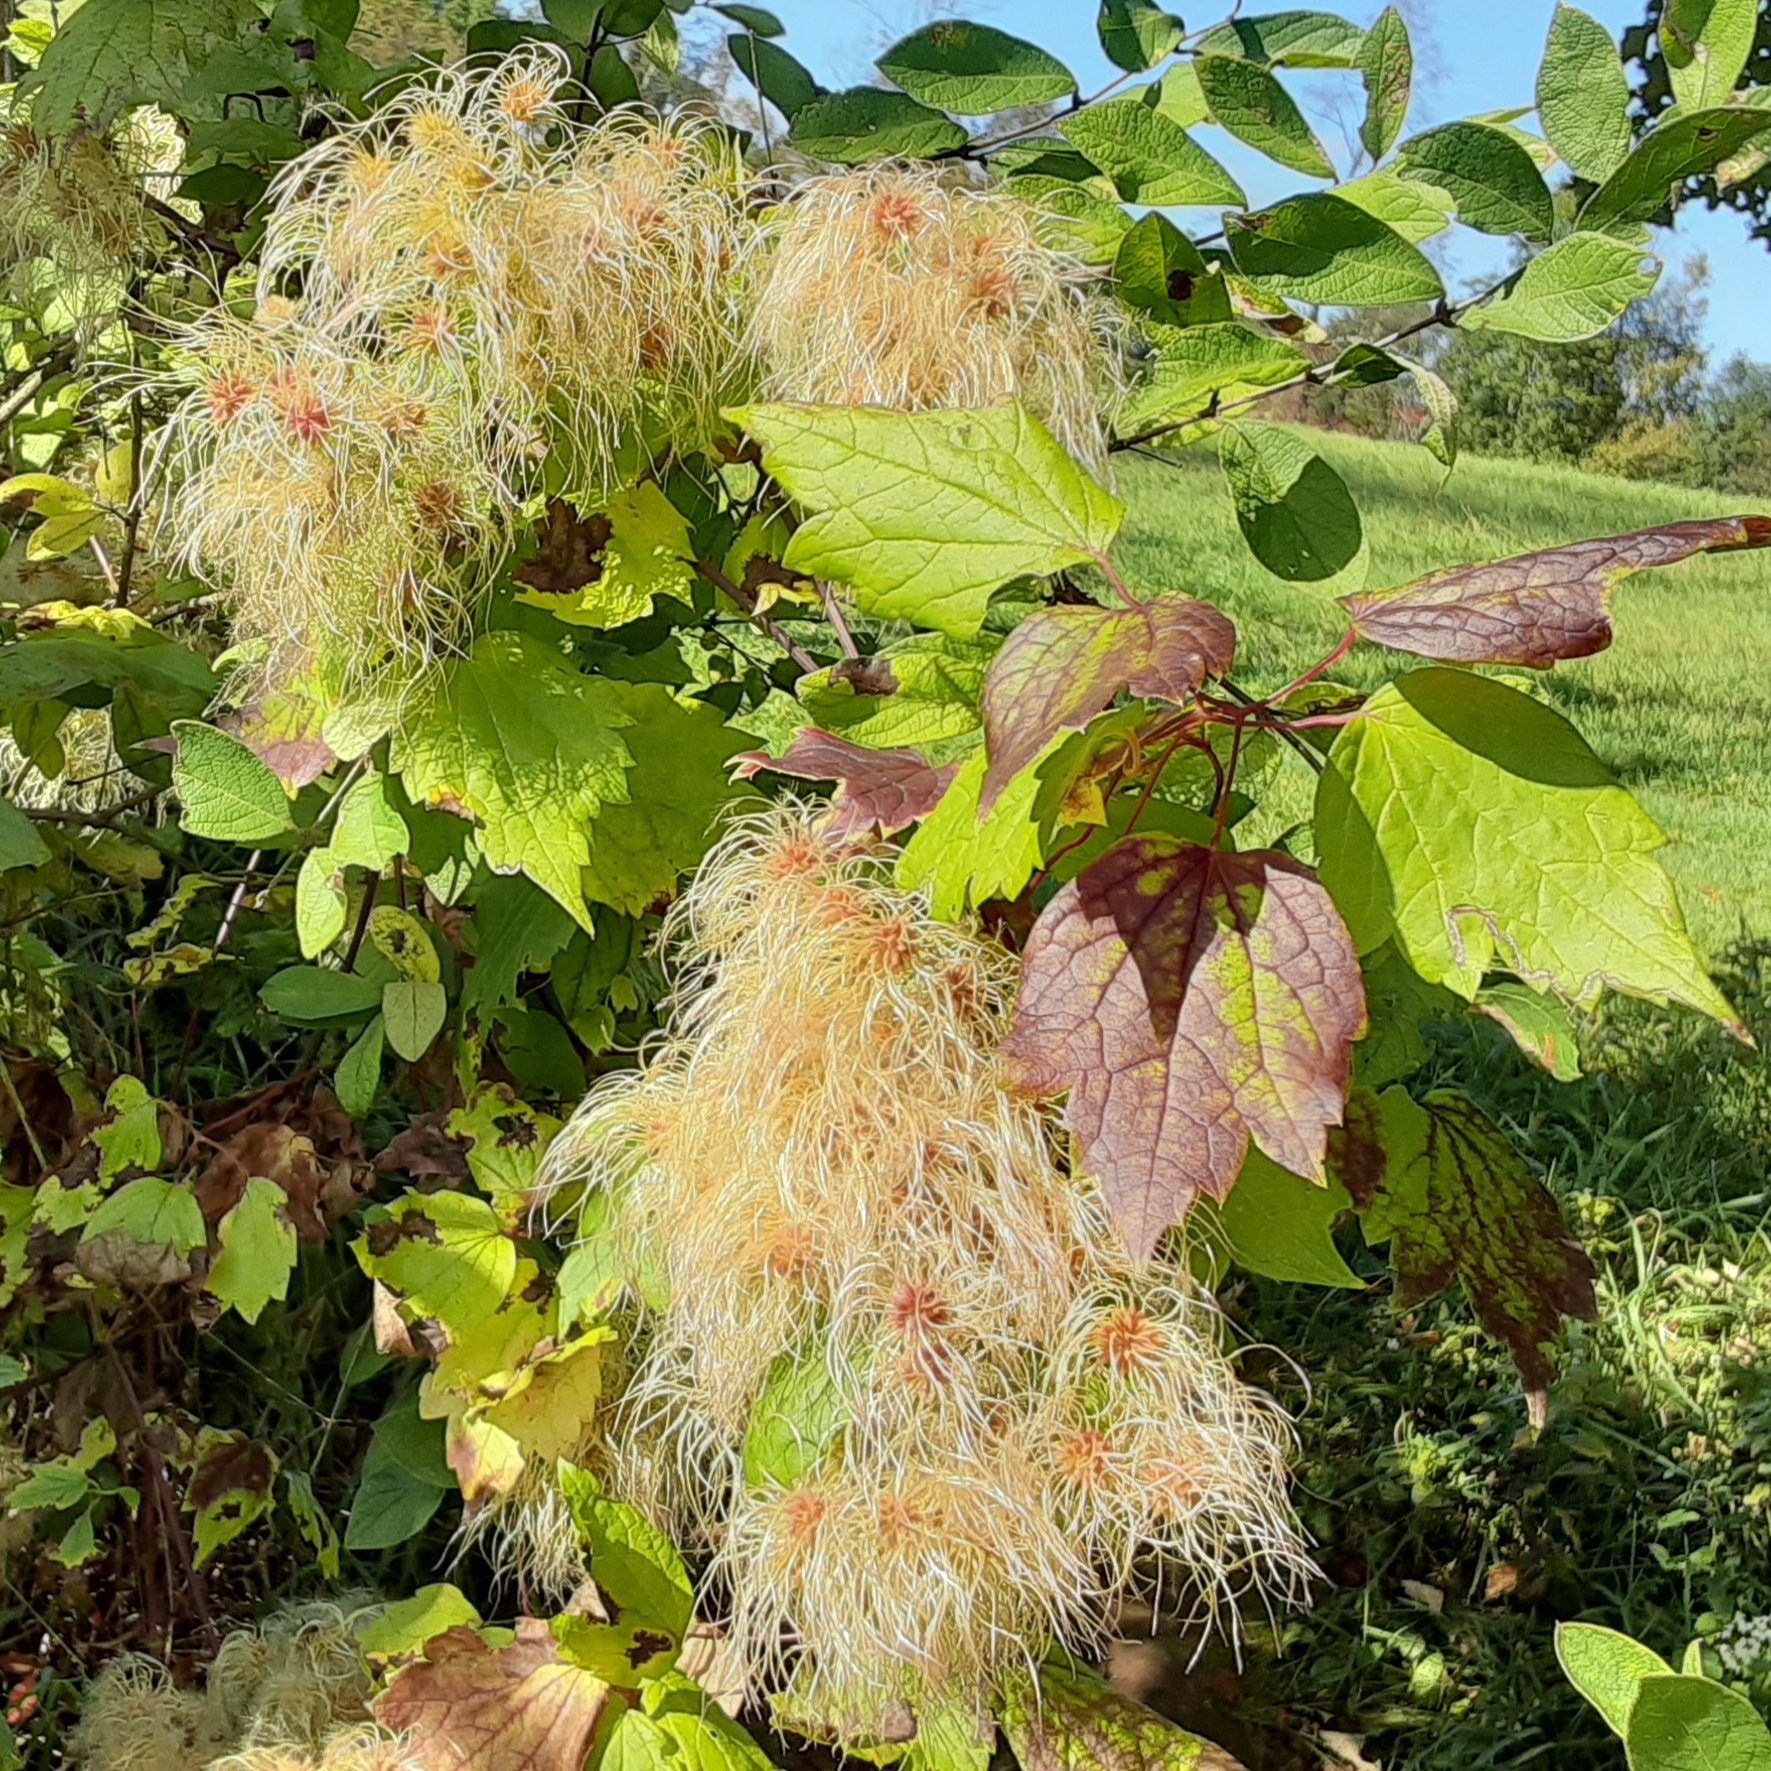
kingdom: Plantae
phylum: Tracheophyta
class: Magnoliopsida
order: Ranunculales
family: Ranunculaceae
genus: Clematis
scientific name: Clematis virginiana
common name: Virgin's-bower
